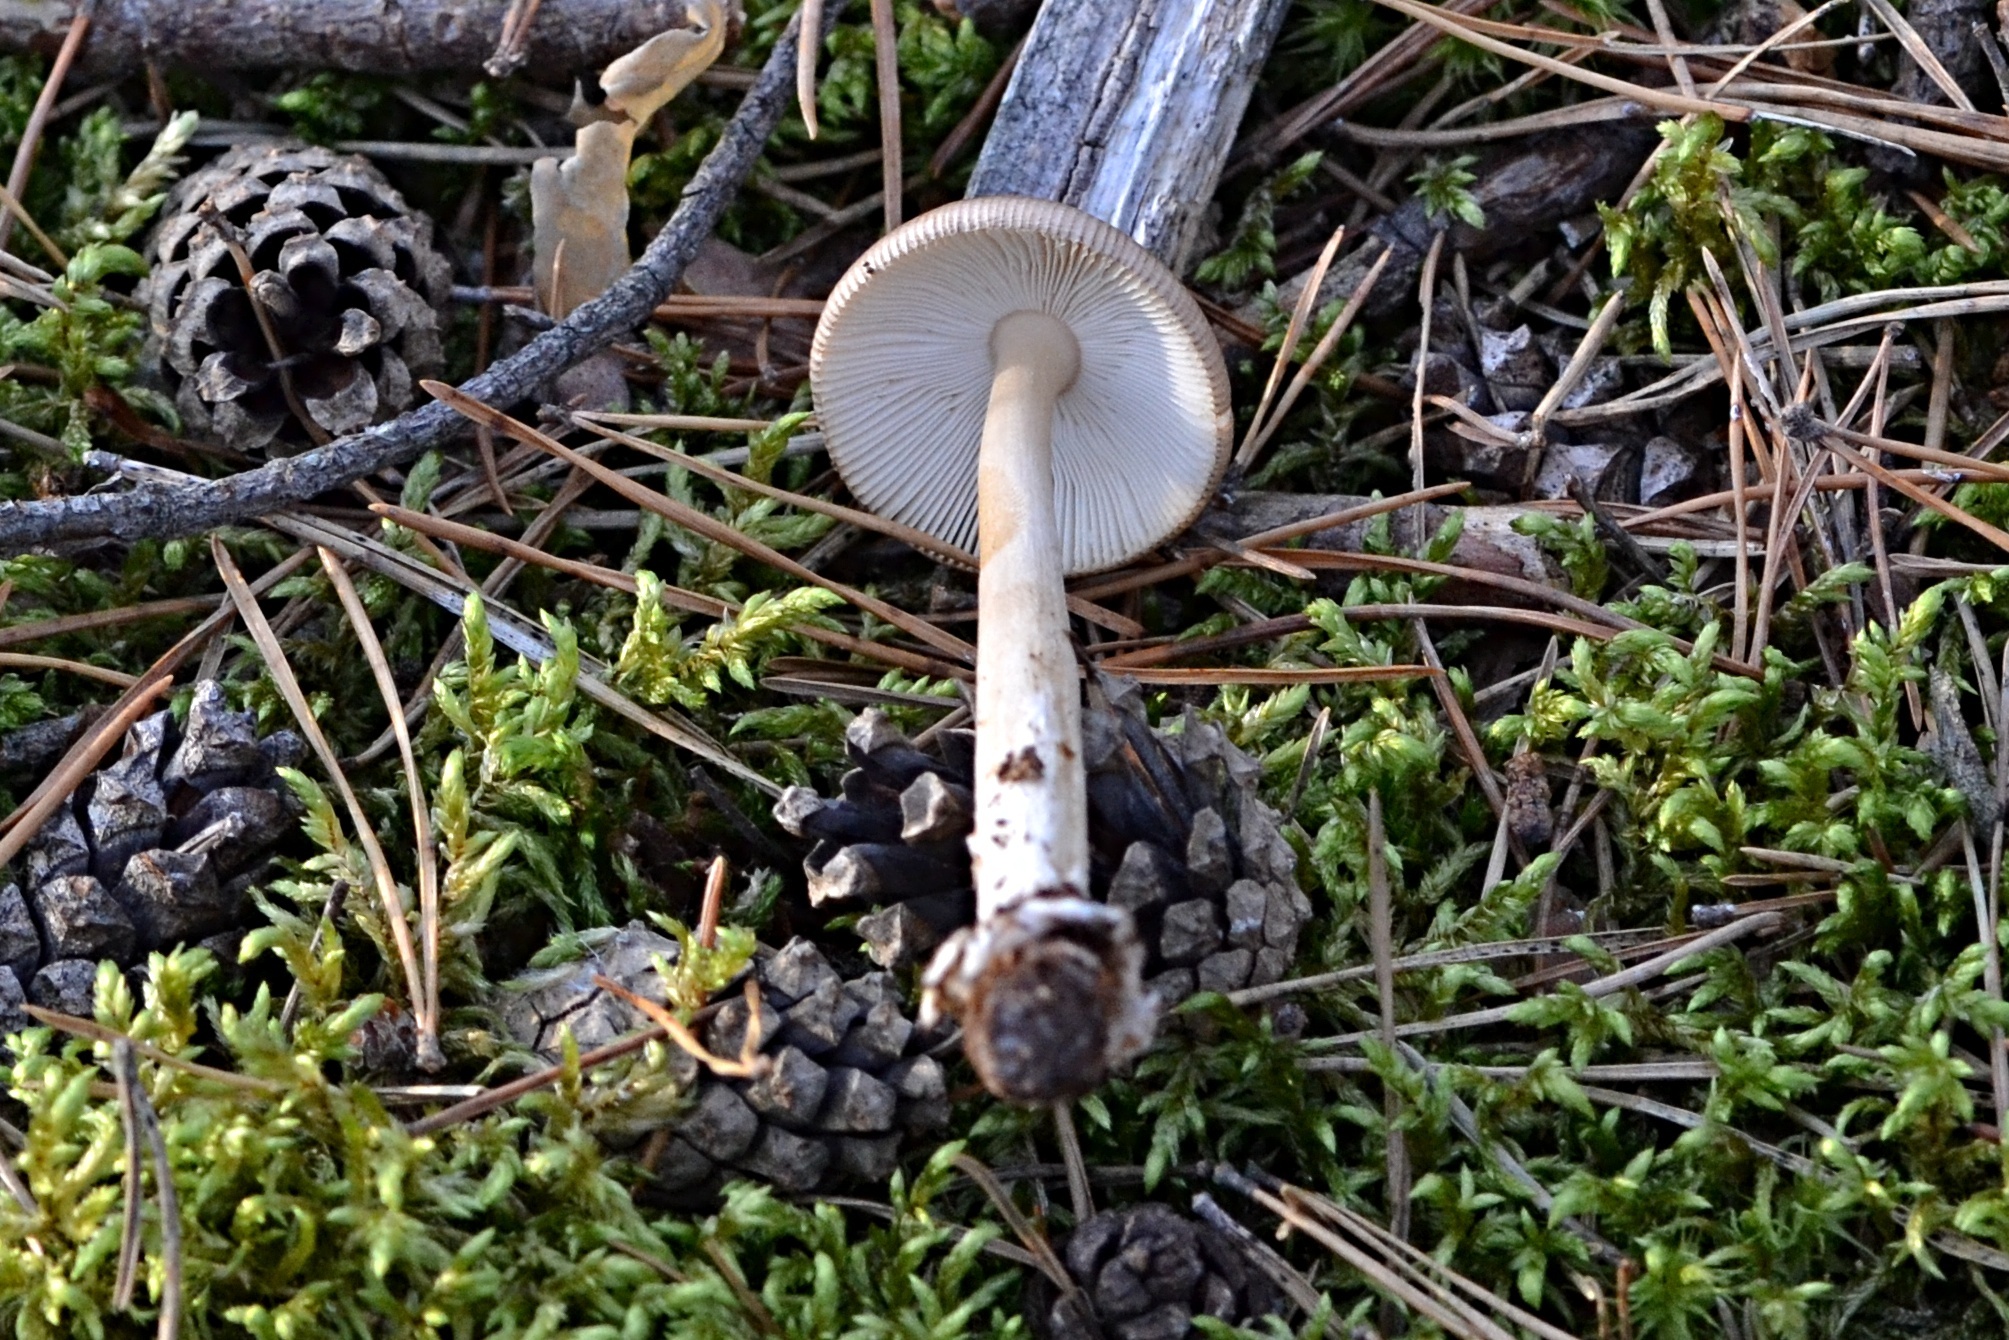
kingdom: Fungi
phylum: Basidiomycota
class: Agaricomycetes
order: Agaricales
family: Amanitaceae
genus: Amanita
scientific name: Amanita fulva
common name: Tawny grisette
